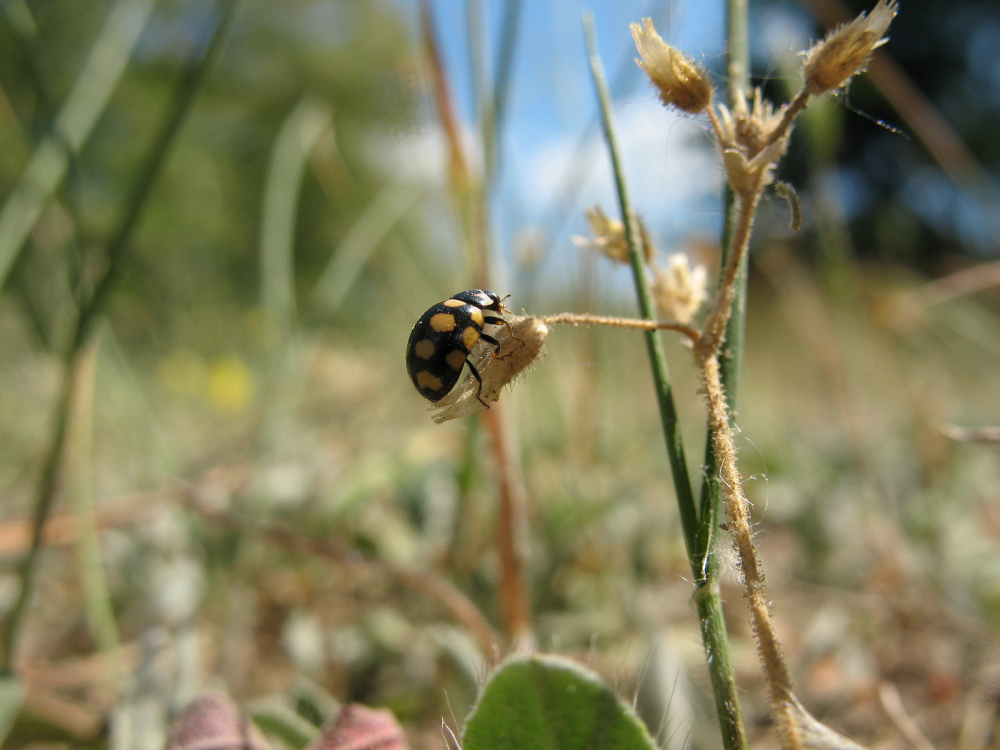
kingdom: Animalia
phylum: Arthropoda
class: Insecta
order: Coleoptera
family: Coccinellidae
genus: Coccinula
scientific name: Coccinula quatuordecimpustulata
